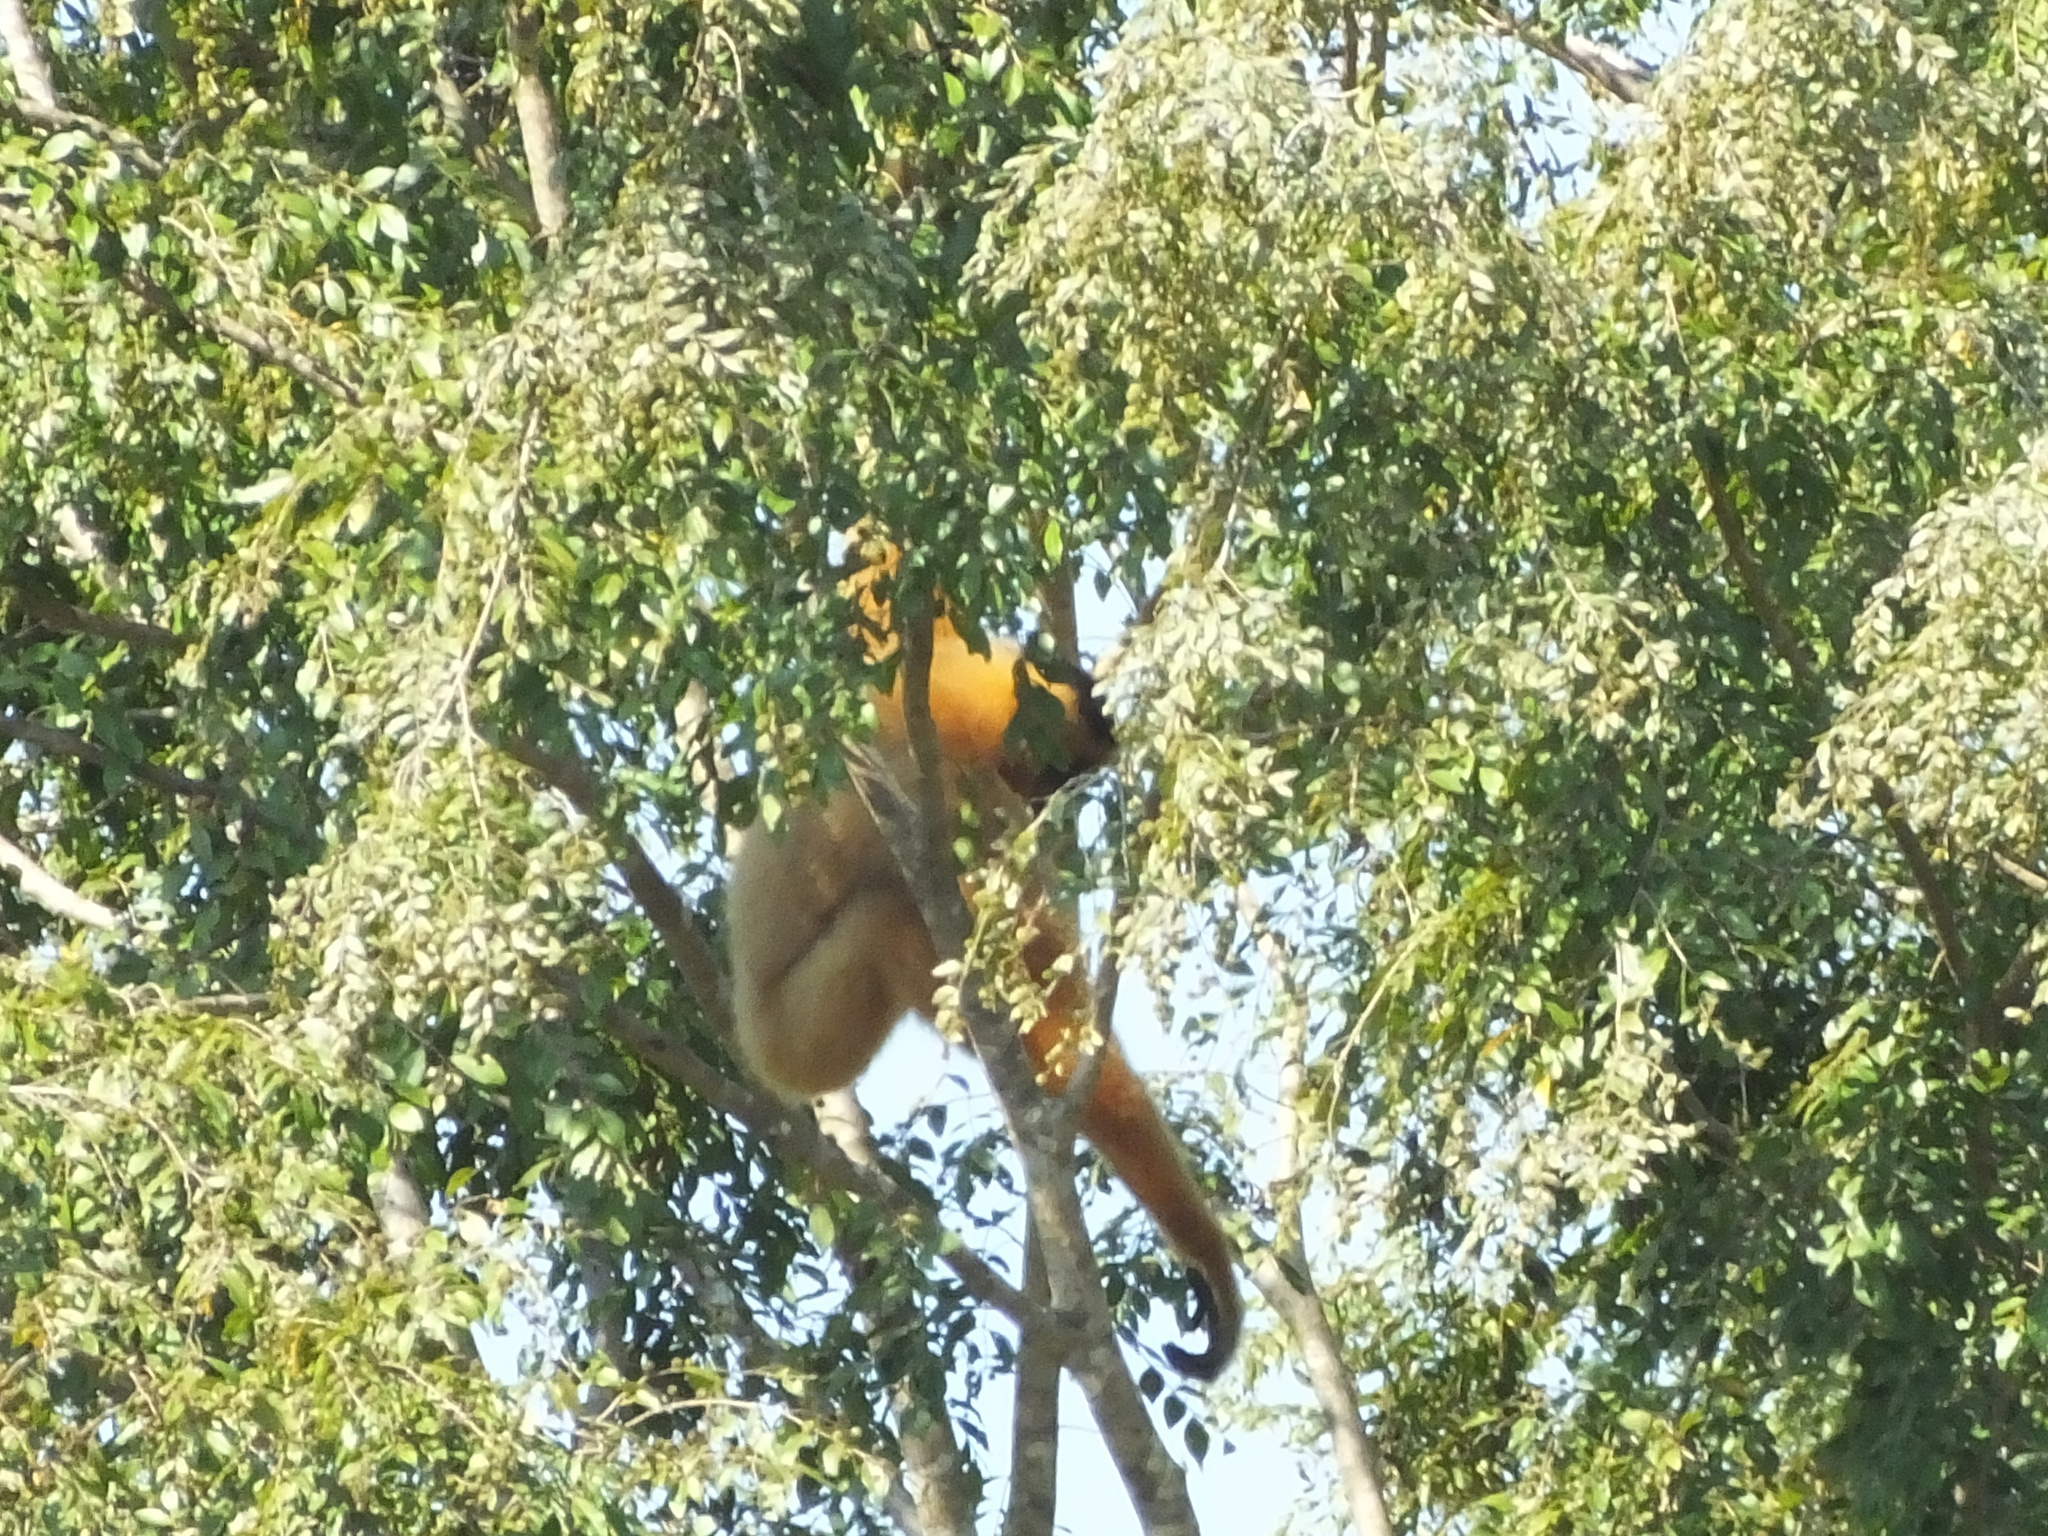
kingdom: Animalia
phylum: Chordata
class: Mammalia
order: Primates
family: Hylobatidae
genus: Nomascus
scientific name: Nomascus gabriellae
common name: Red-cheeked gibbon
